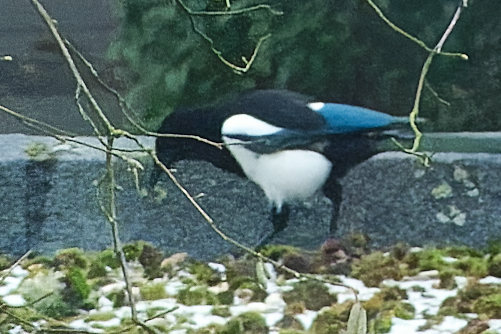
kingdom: Animalia
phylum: Chordata
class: Aves
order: Passeriformes
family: Corvidae
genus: Pica
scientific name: Pica pica
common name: Eurasian magpie
